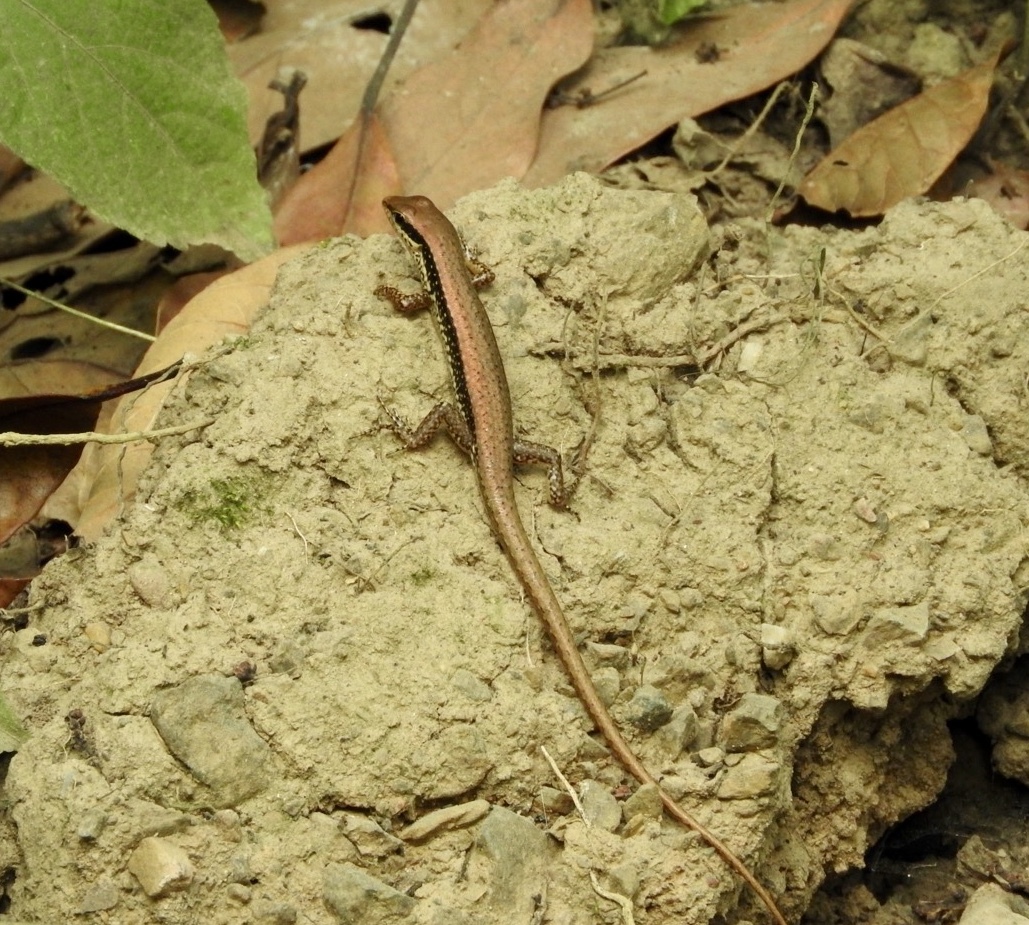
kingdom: Animalia
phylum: Chordata
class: Squamata
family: Scincidae
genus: Sphenomorphus
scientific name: Sphenomorphus maculatus
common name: Maculated forest skink
